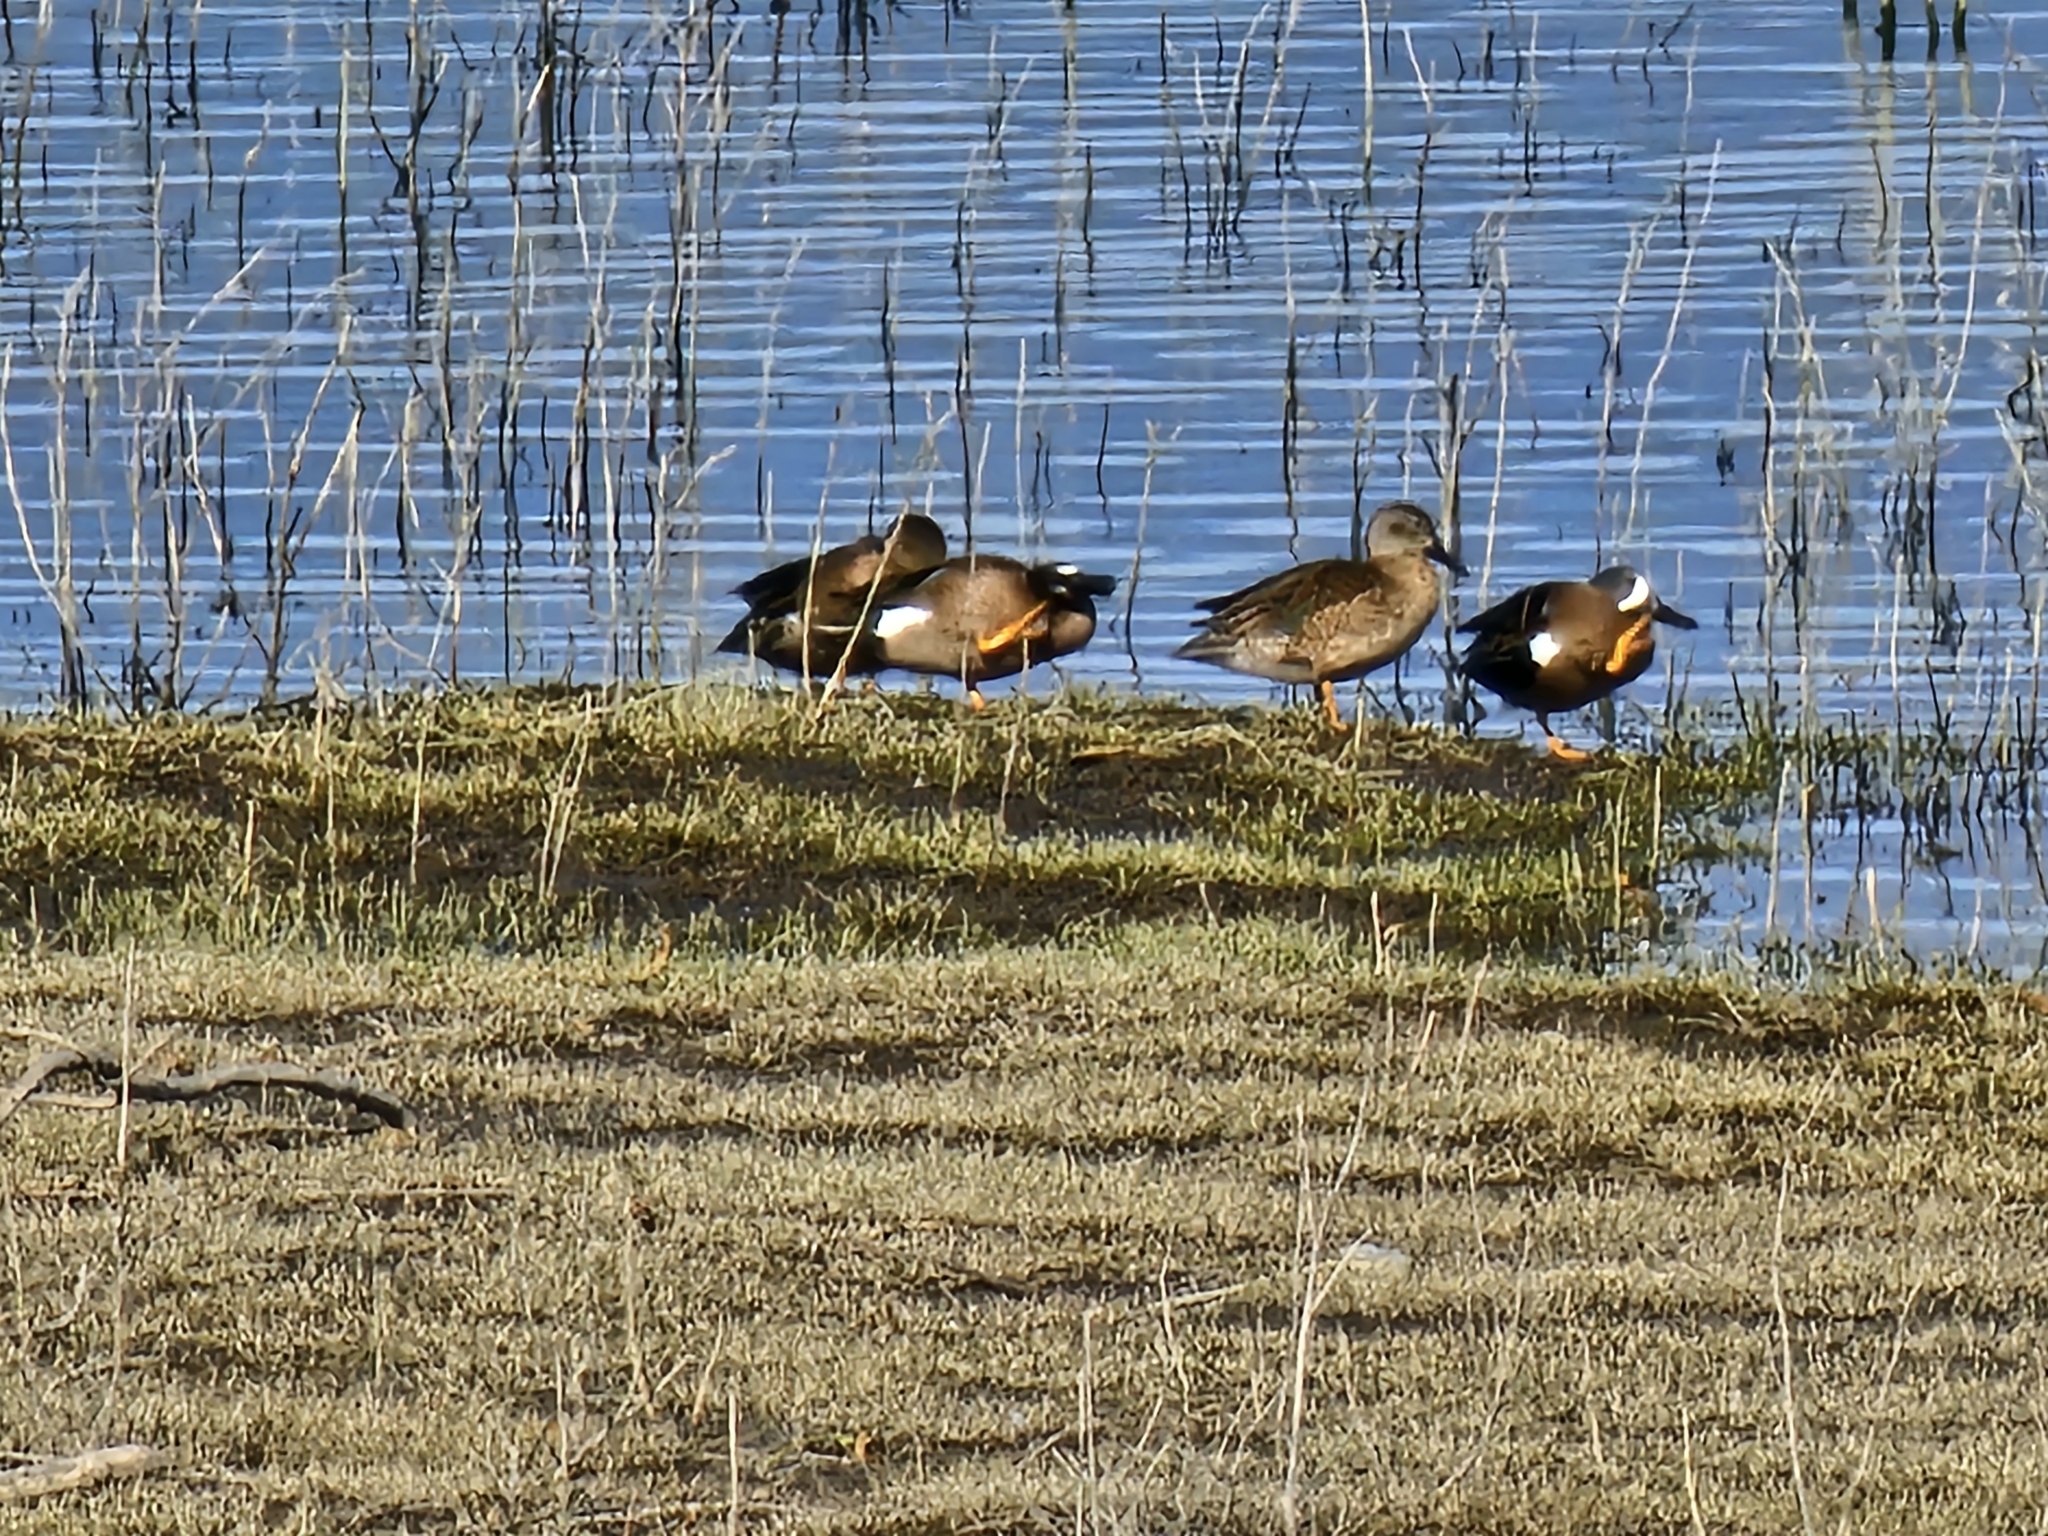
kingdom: Animalia
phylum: Chordata
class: Aves
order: Anseriformes
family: Anatidae
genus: Spatula
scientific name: Spatula discors
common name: Blue-winged teal
